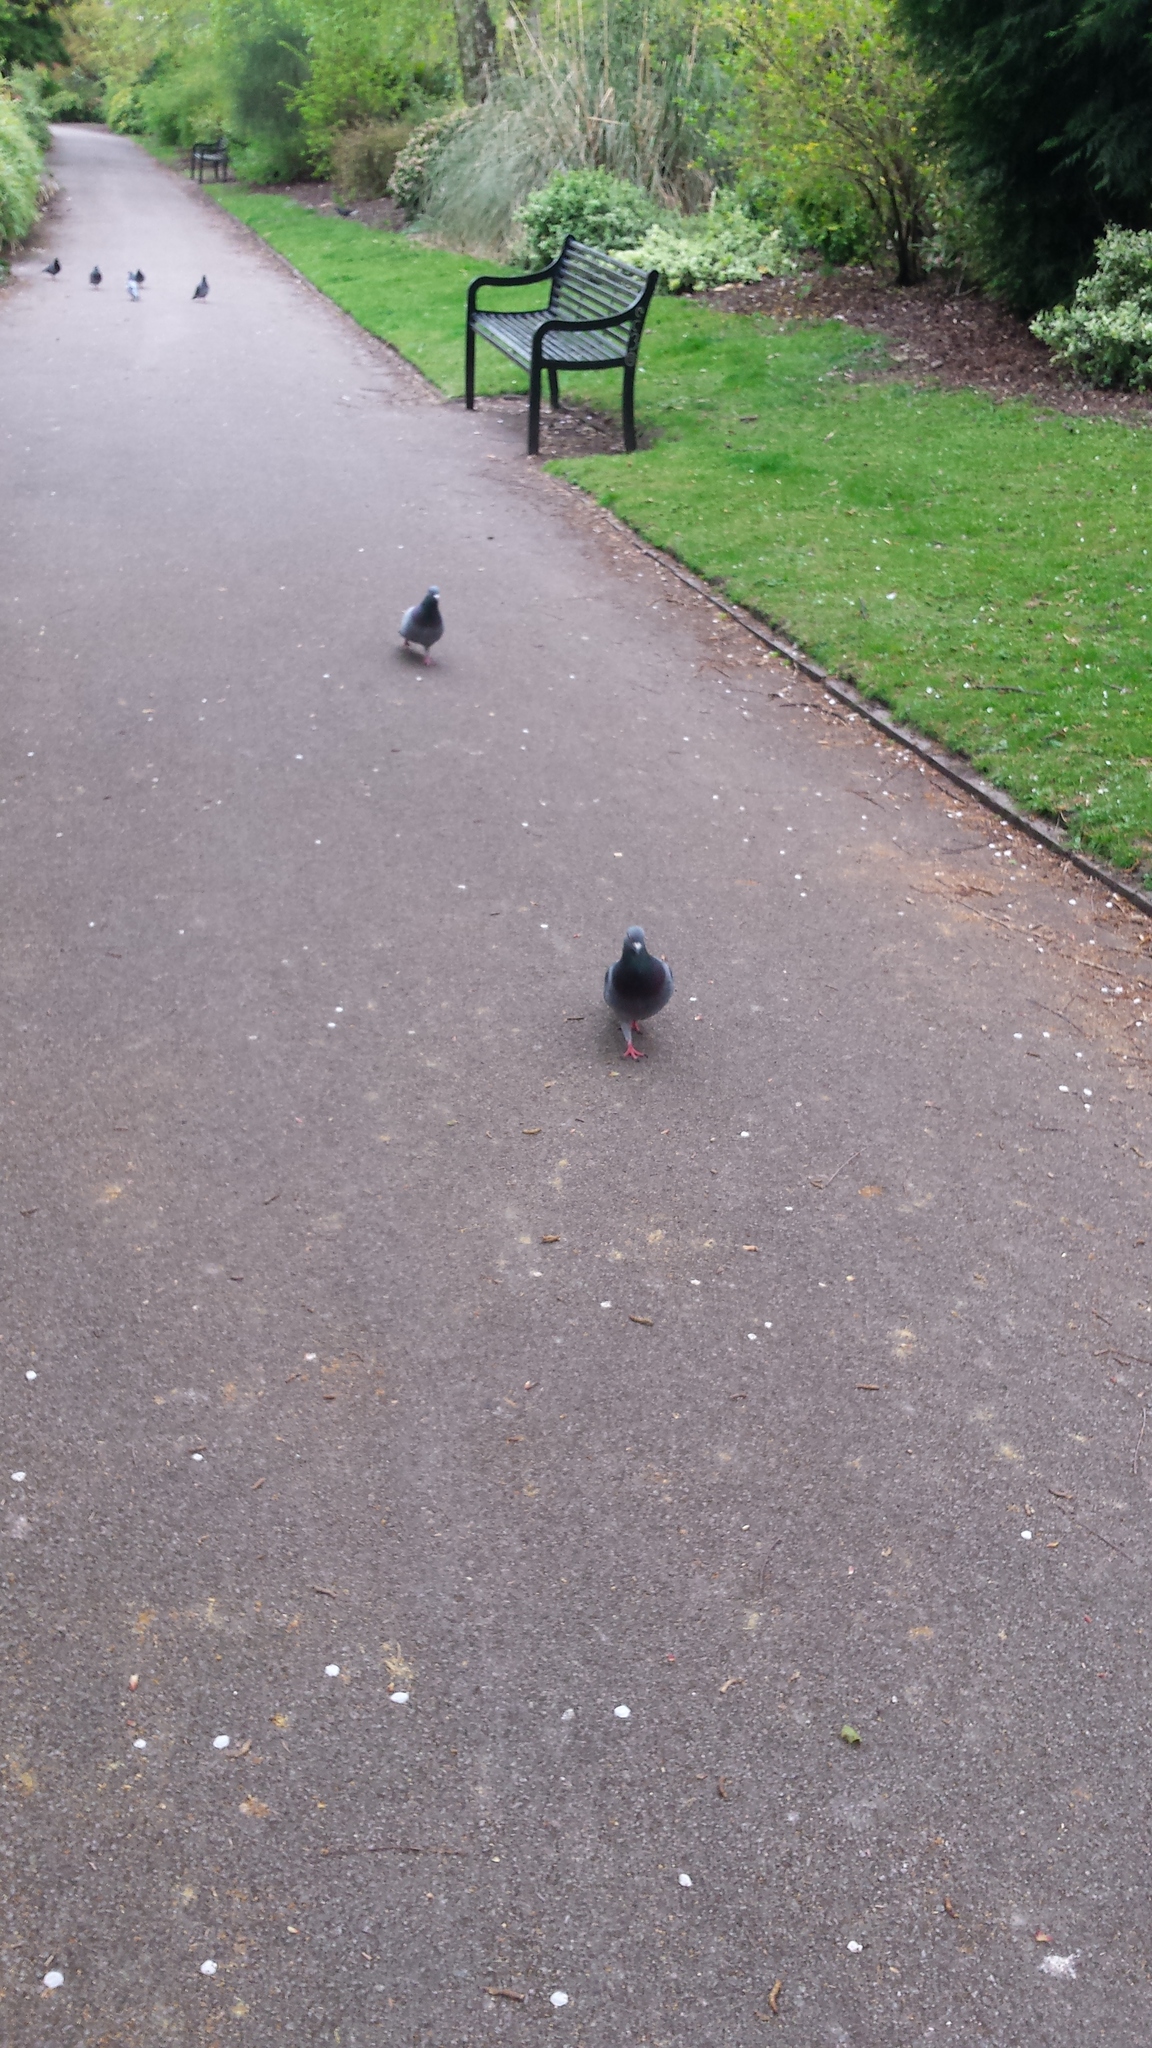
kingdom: Animalia
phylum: Chordata
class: Aves
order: Columbiformes
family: Columbidae
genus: Columba
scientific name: Columba livia
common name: Rock pigeon
